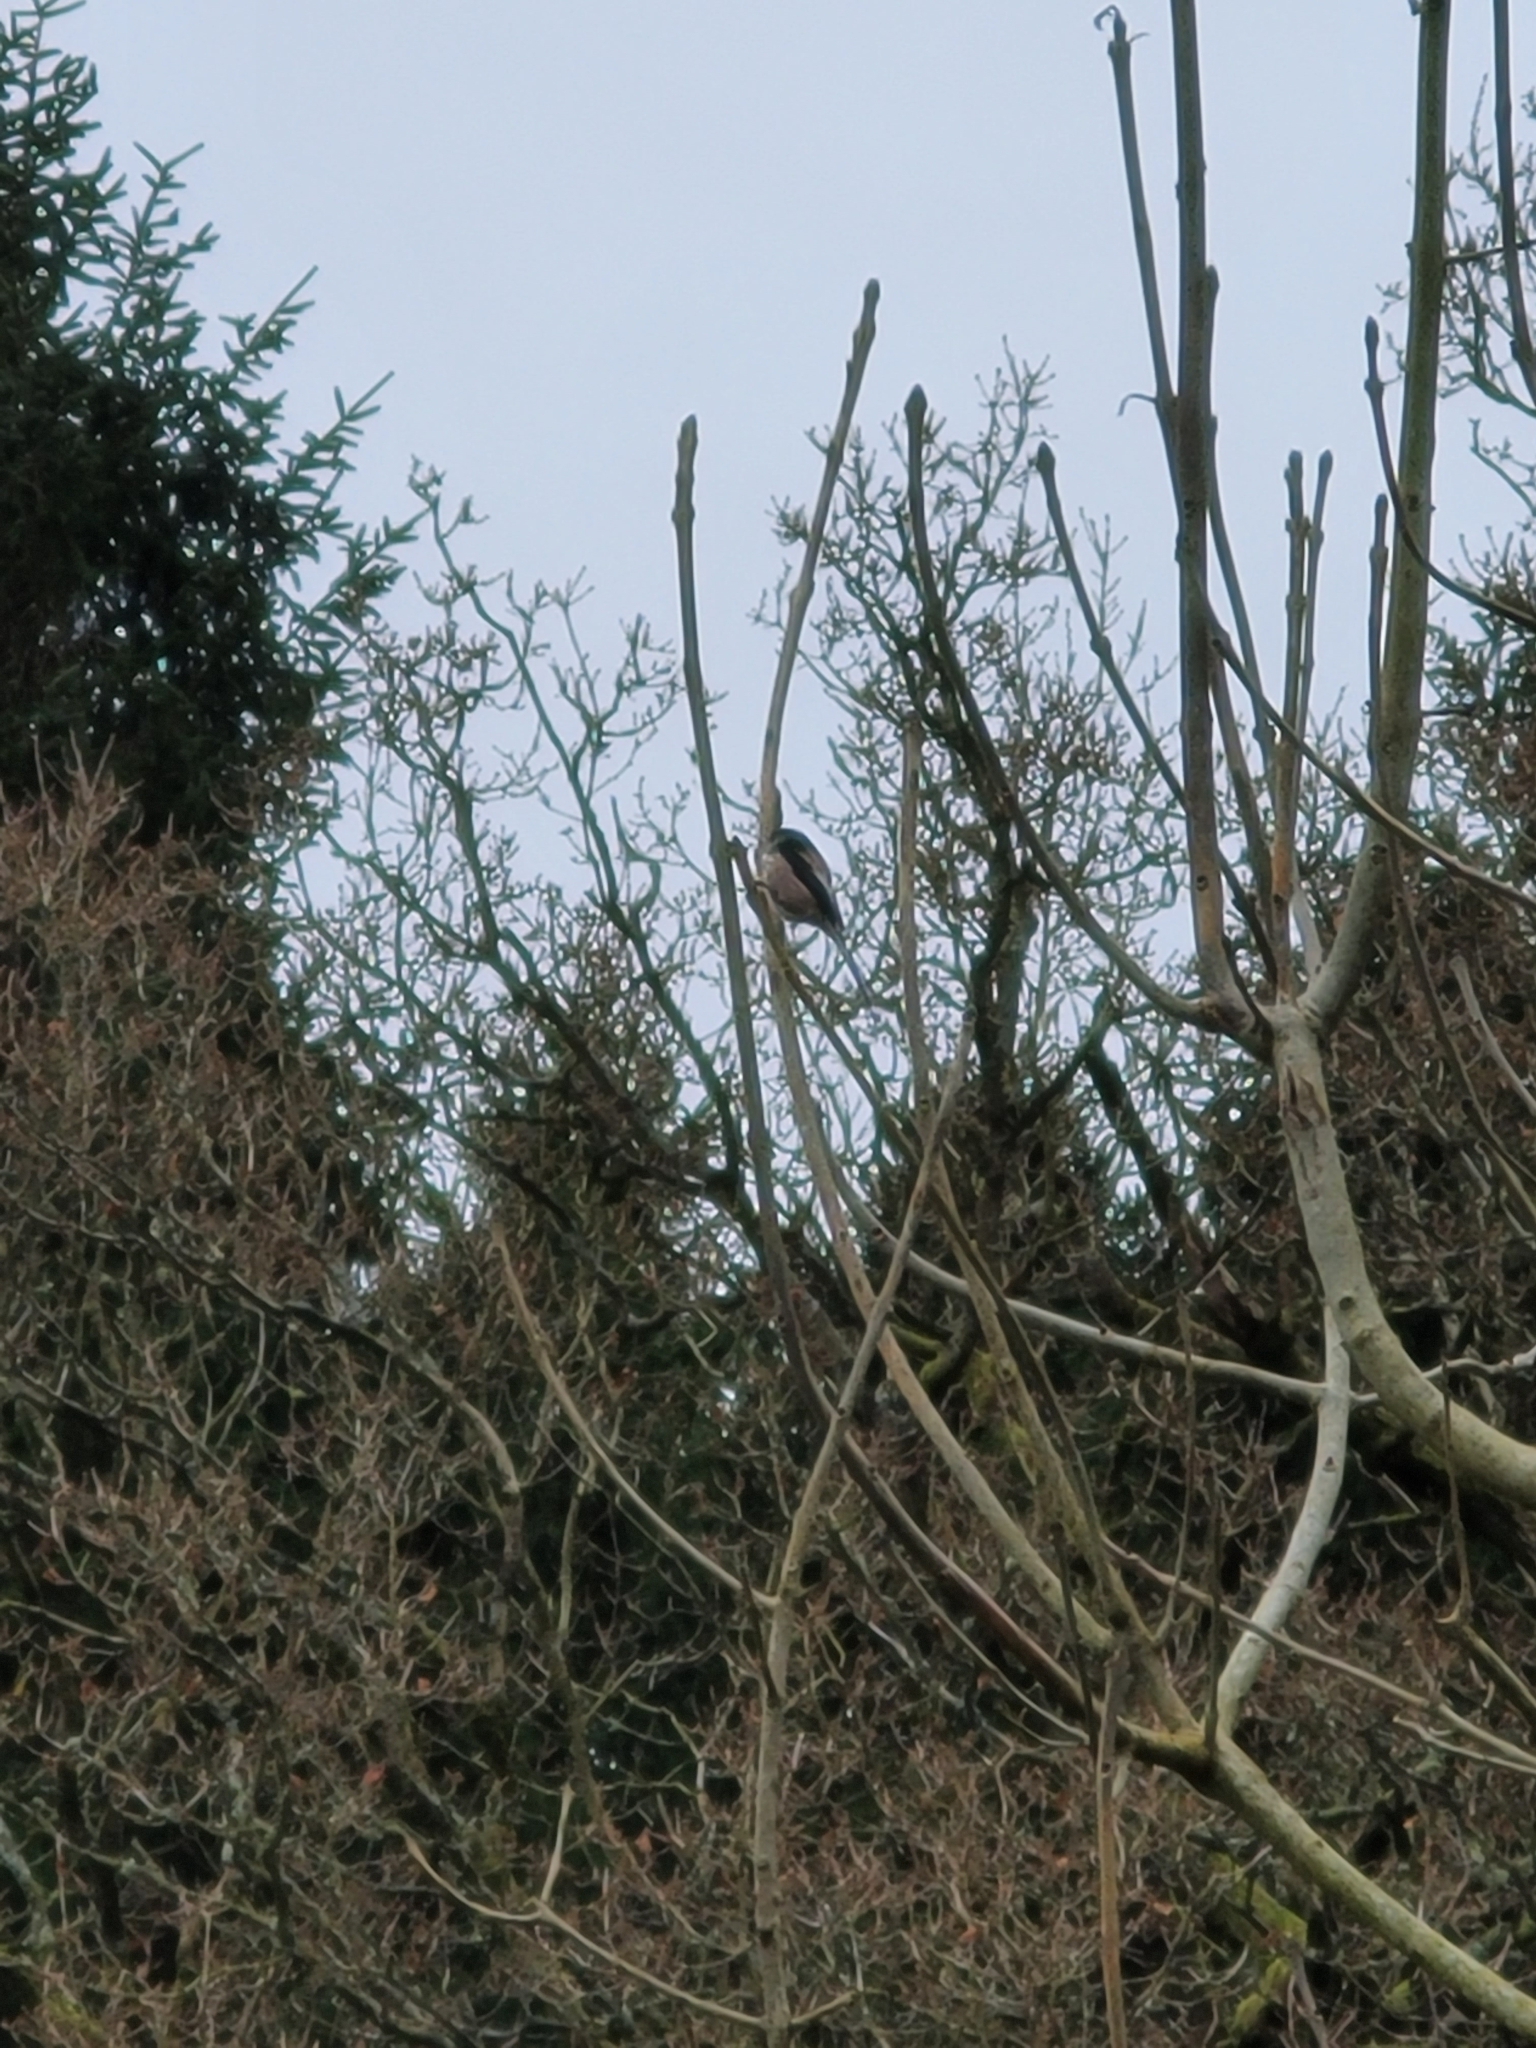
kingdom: Animalia
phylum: Chordata
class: Aves
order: Passeriformes
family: Aegithalidae
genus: Aegithalos
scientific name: Aegithalos caudatus
